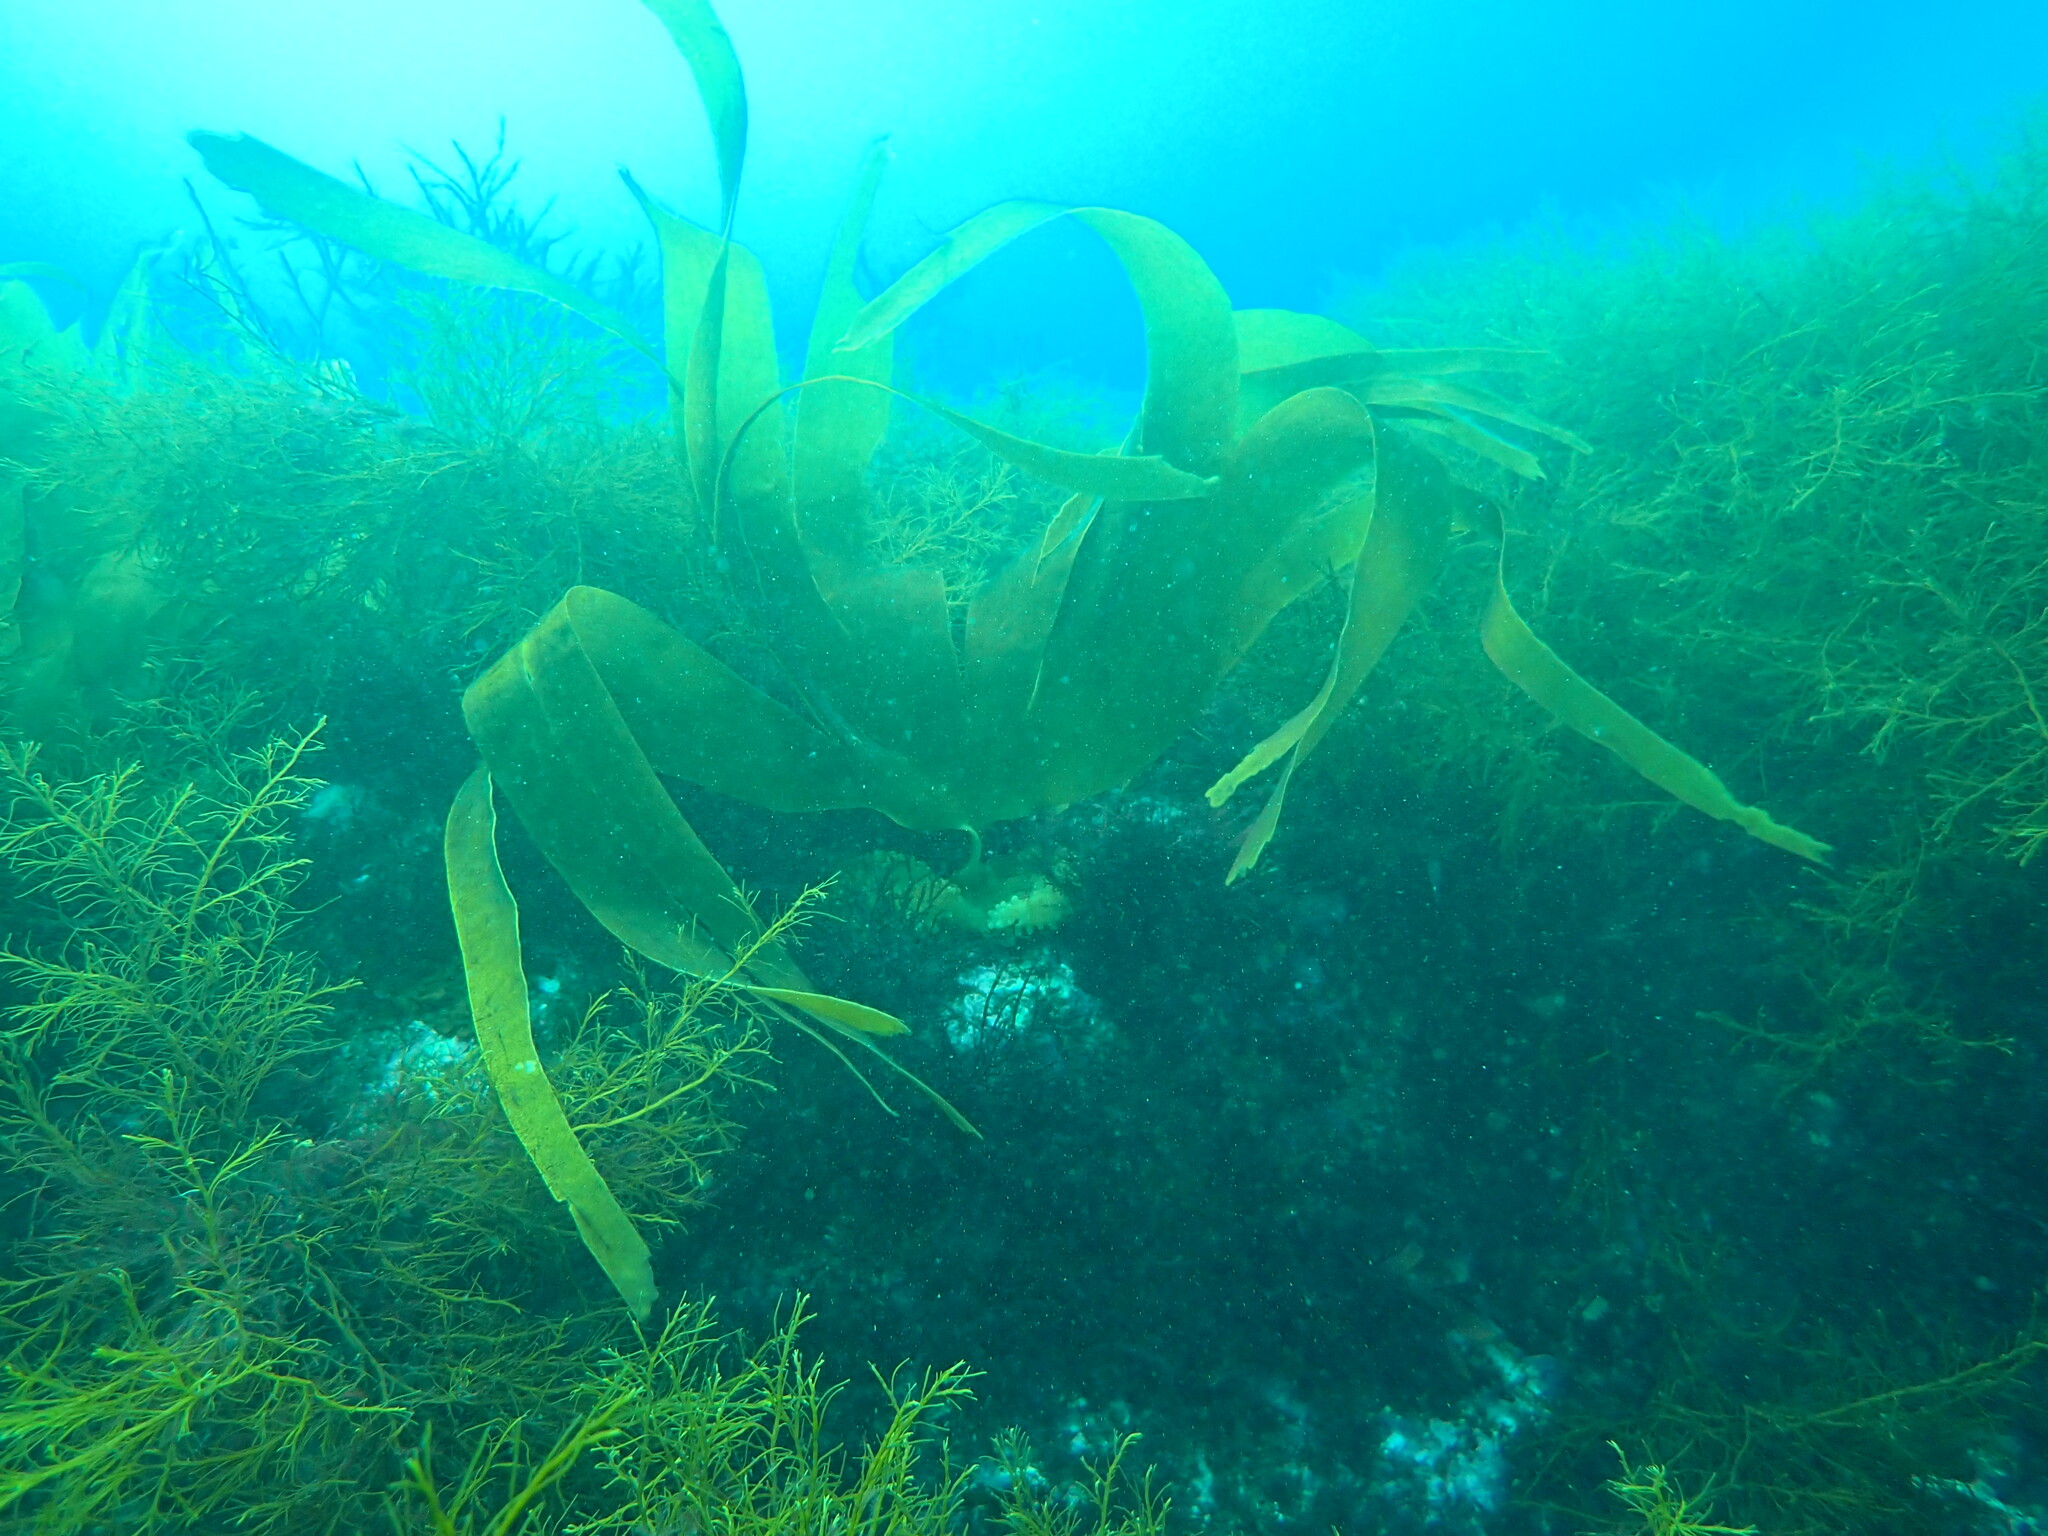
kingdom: Chromista
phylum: Ochrophyta
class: Phaeophyceae
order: Tilopteridales
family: Phyllariaceae
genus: Saccorhiza
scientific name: Saccorhiza polyschides
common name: Furbelows
